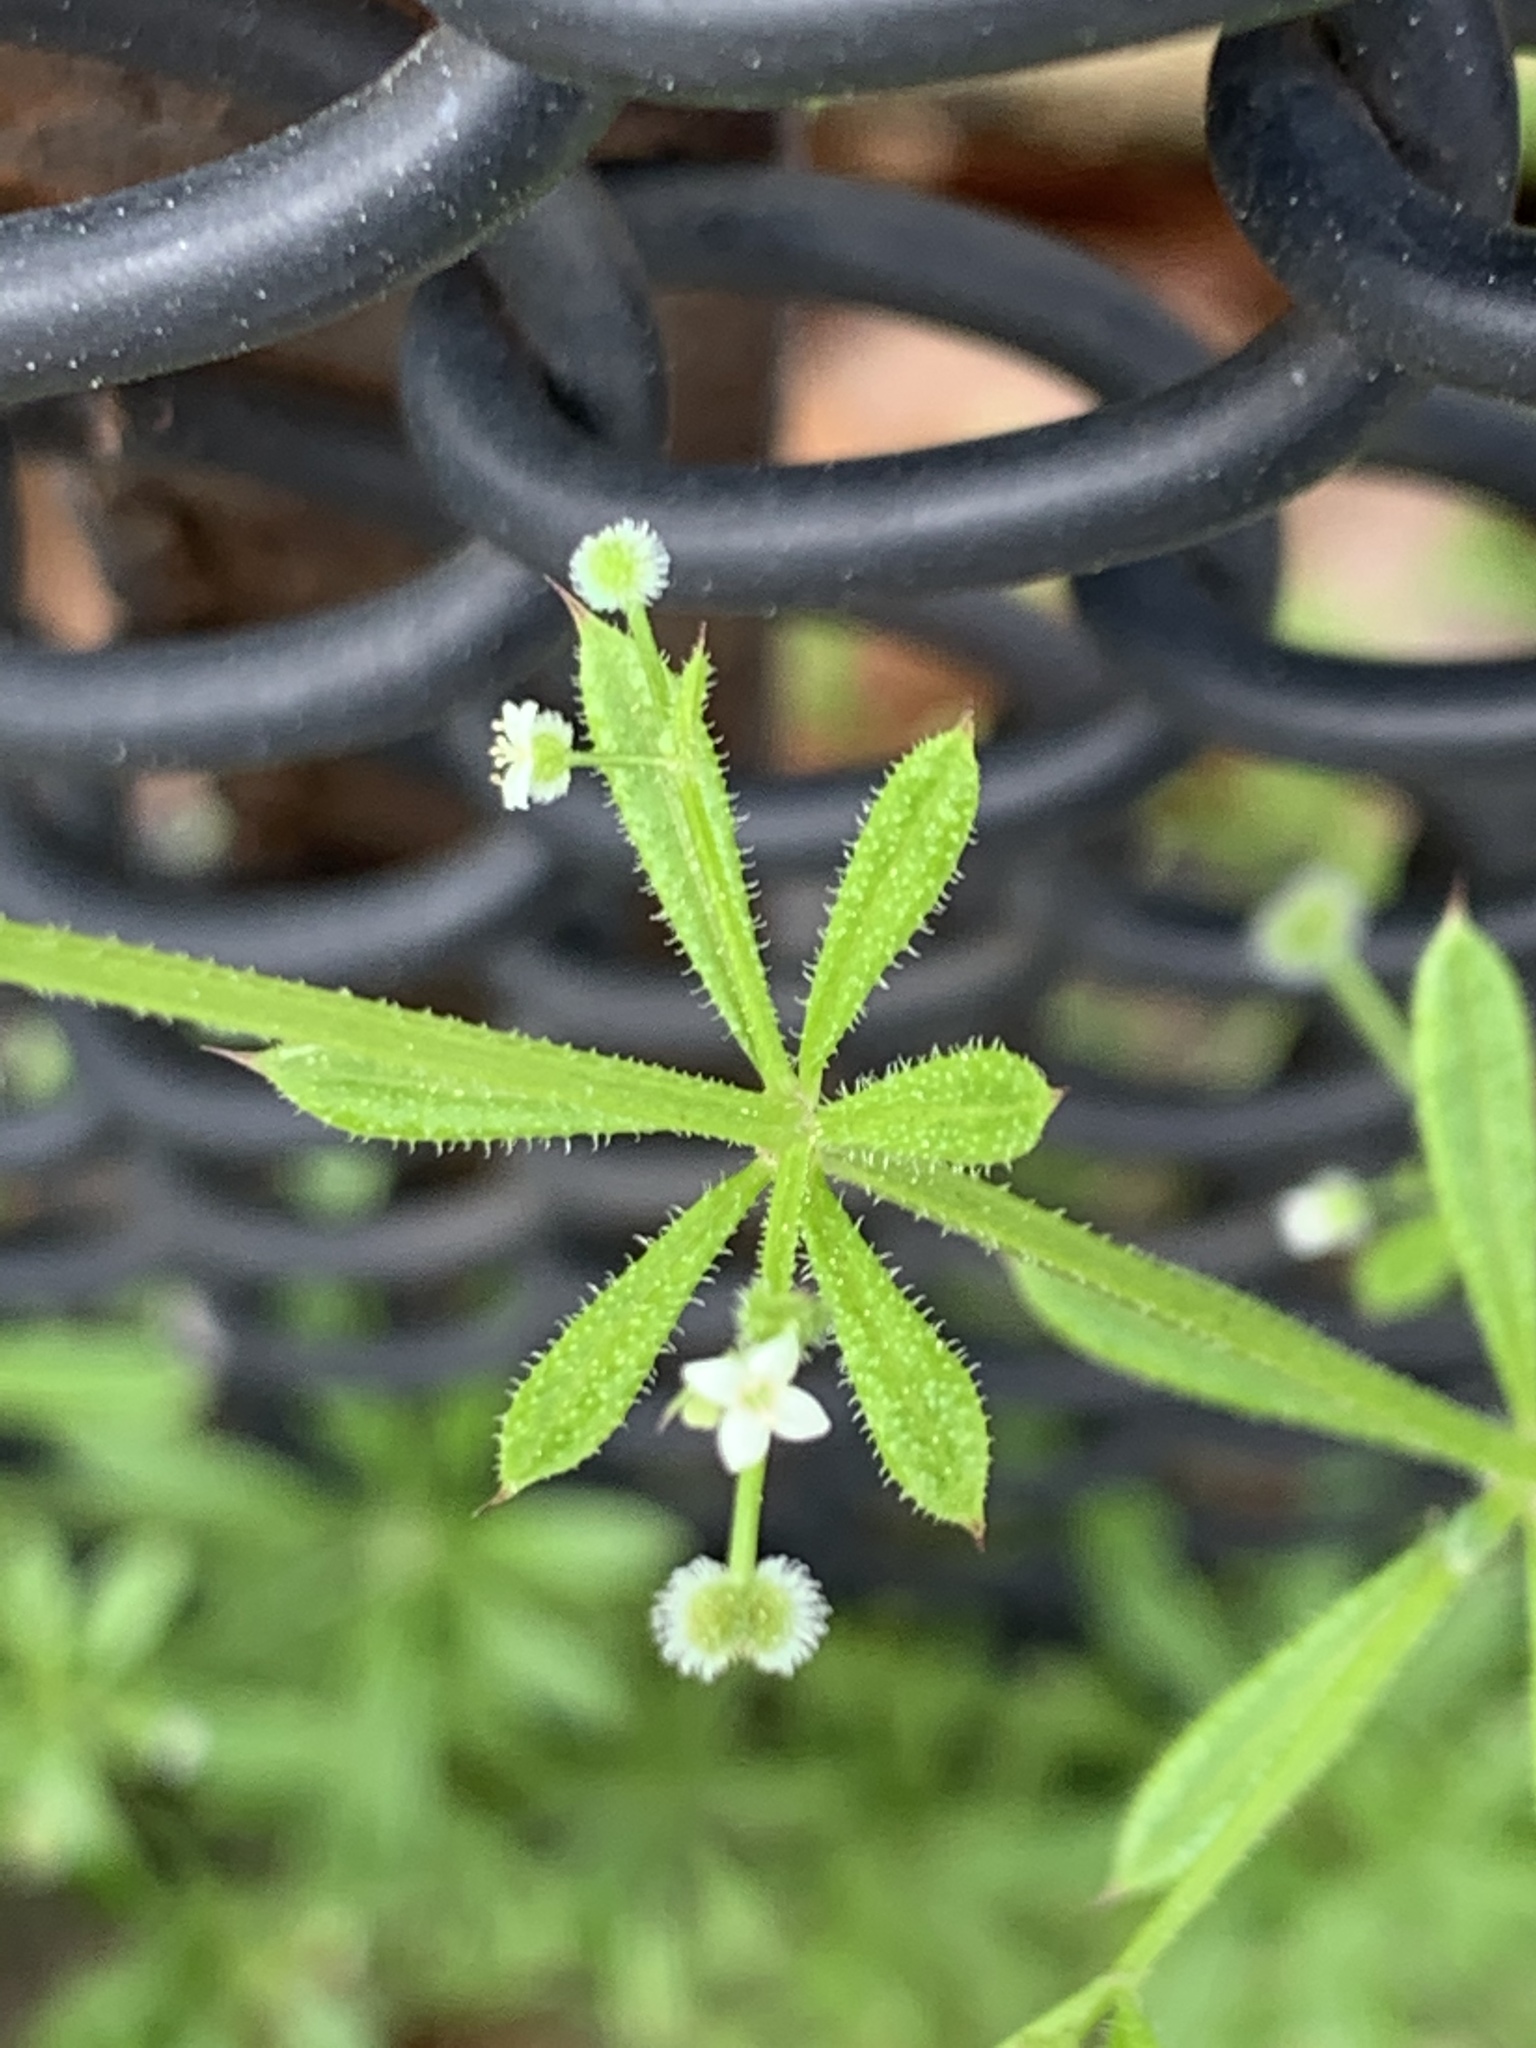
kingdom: Plantae
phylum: Tracheophyta
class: Magnoliopsida
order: Gentianales
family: Rubiaceae
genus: Galium
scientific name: Galium aparine
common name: Cleavers
